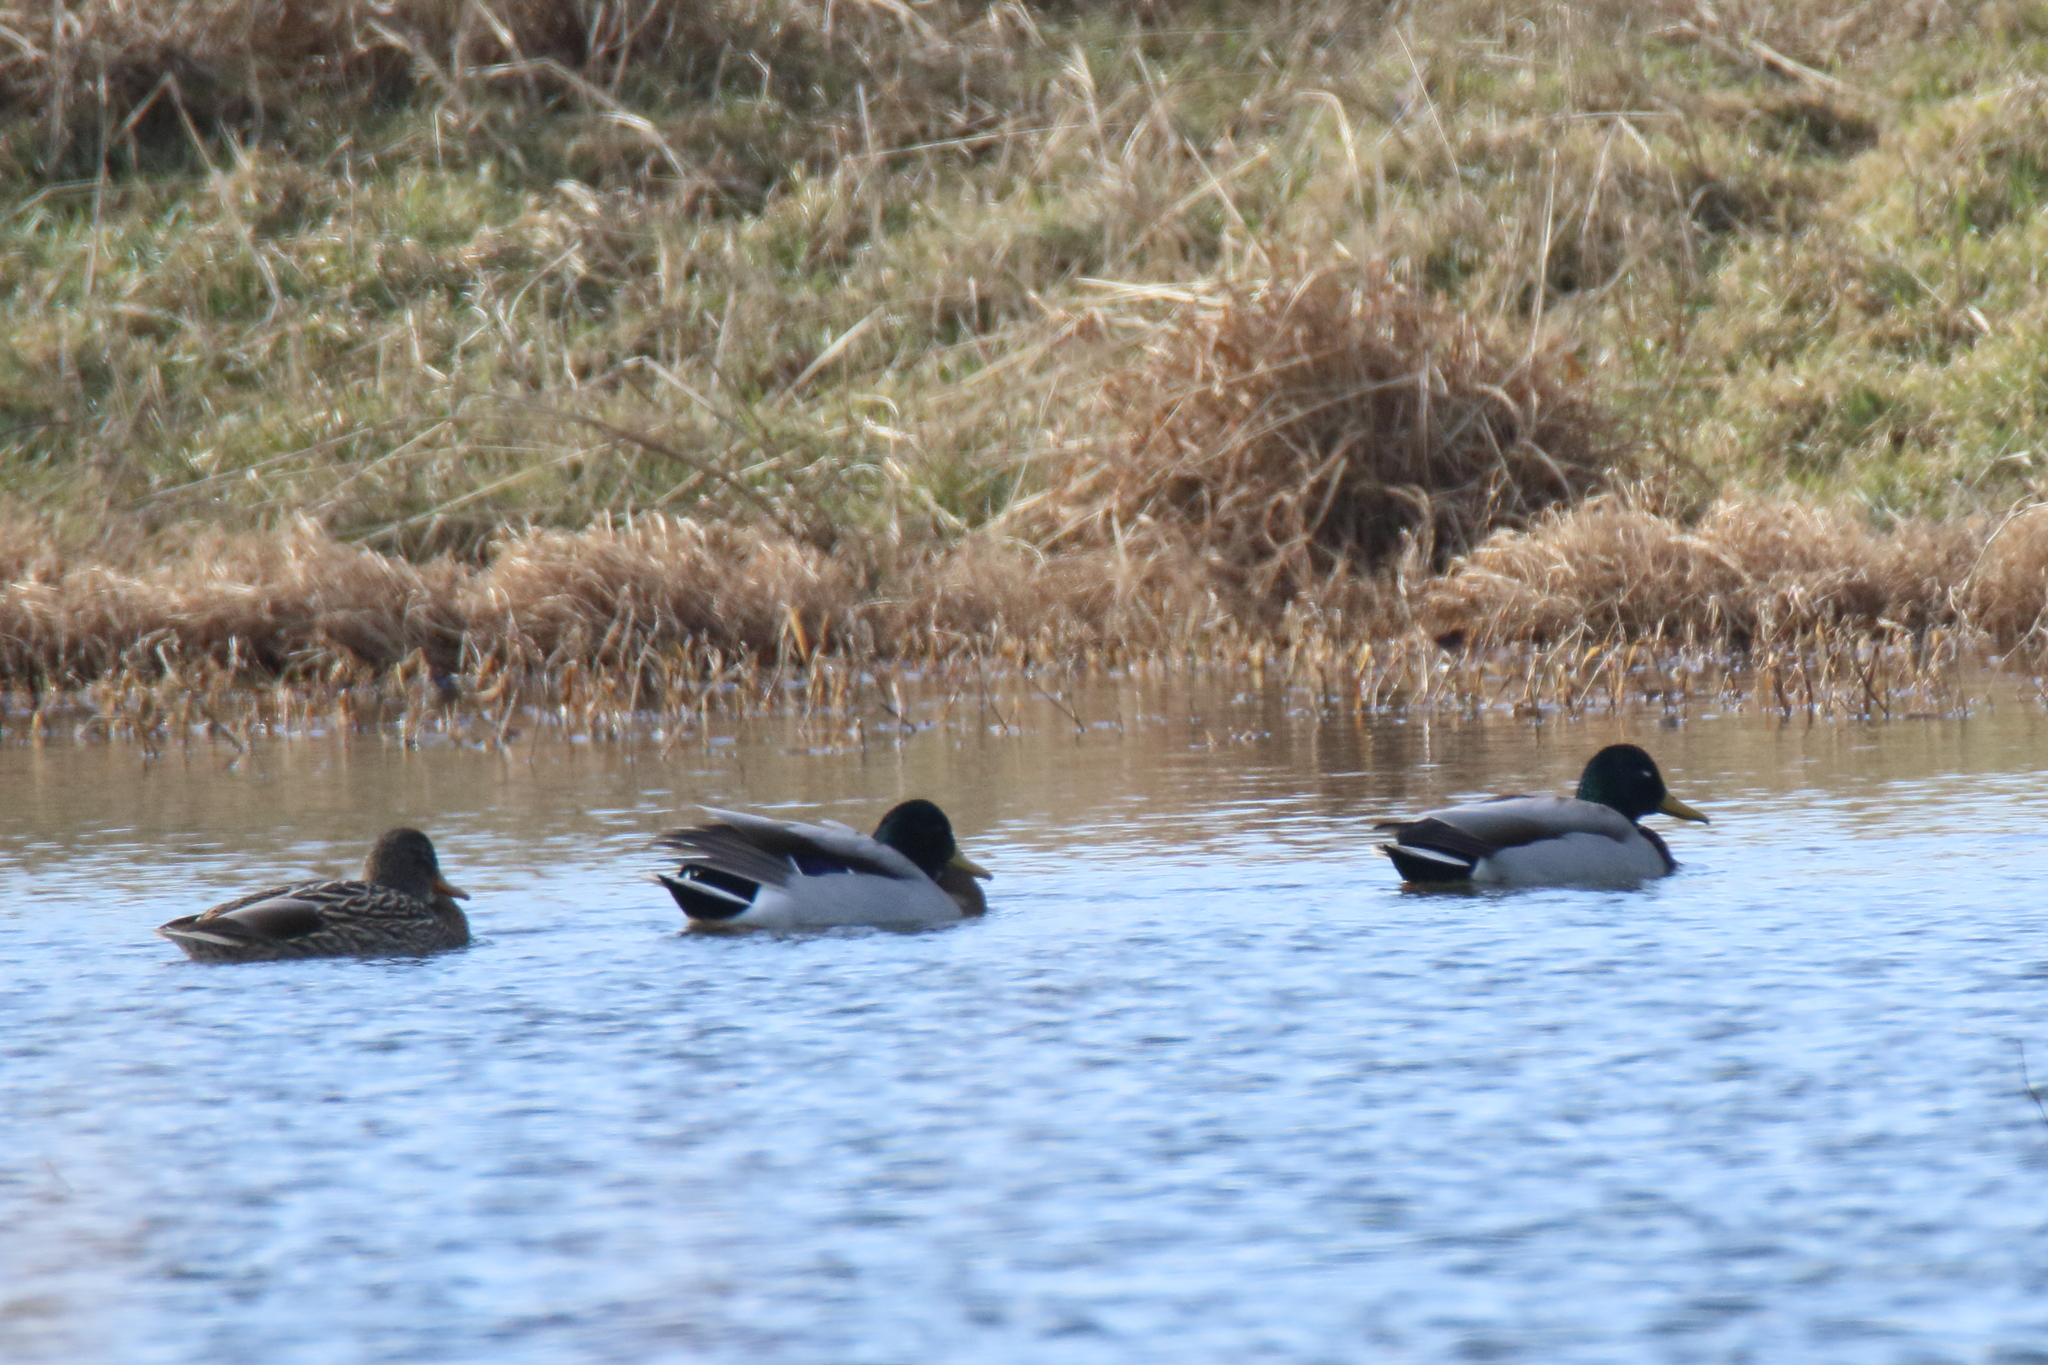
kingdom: Animalia
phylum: Chordata
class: Aves
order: Anseriformes
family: Anatidae
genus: Anas
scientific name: Anas platyrhynchos
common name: Mallard
